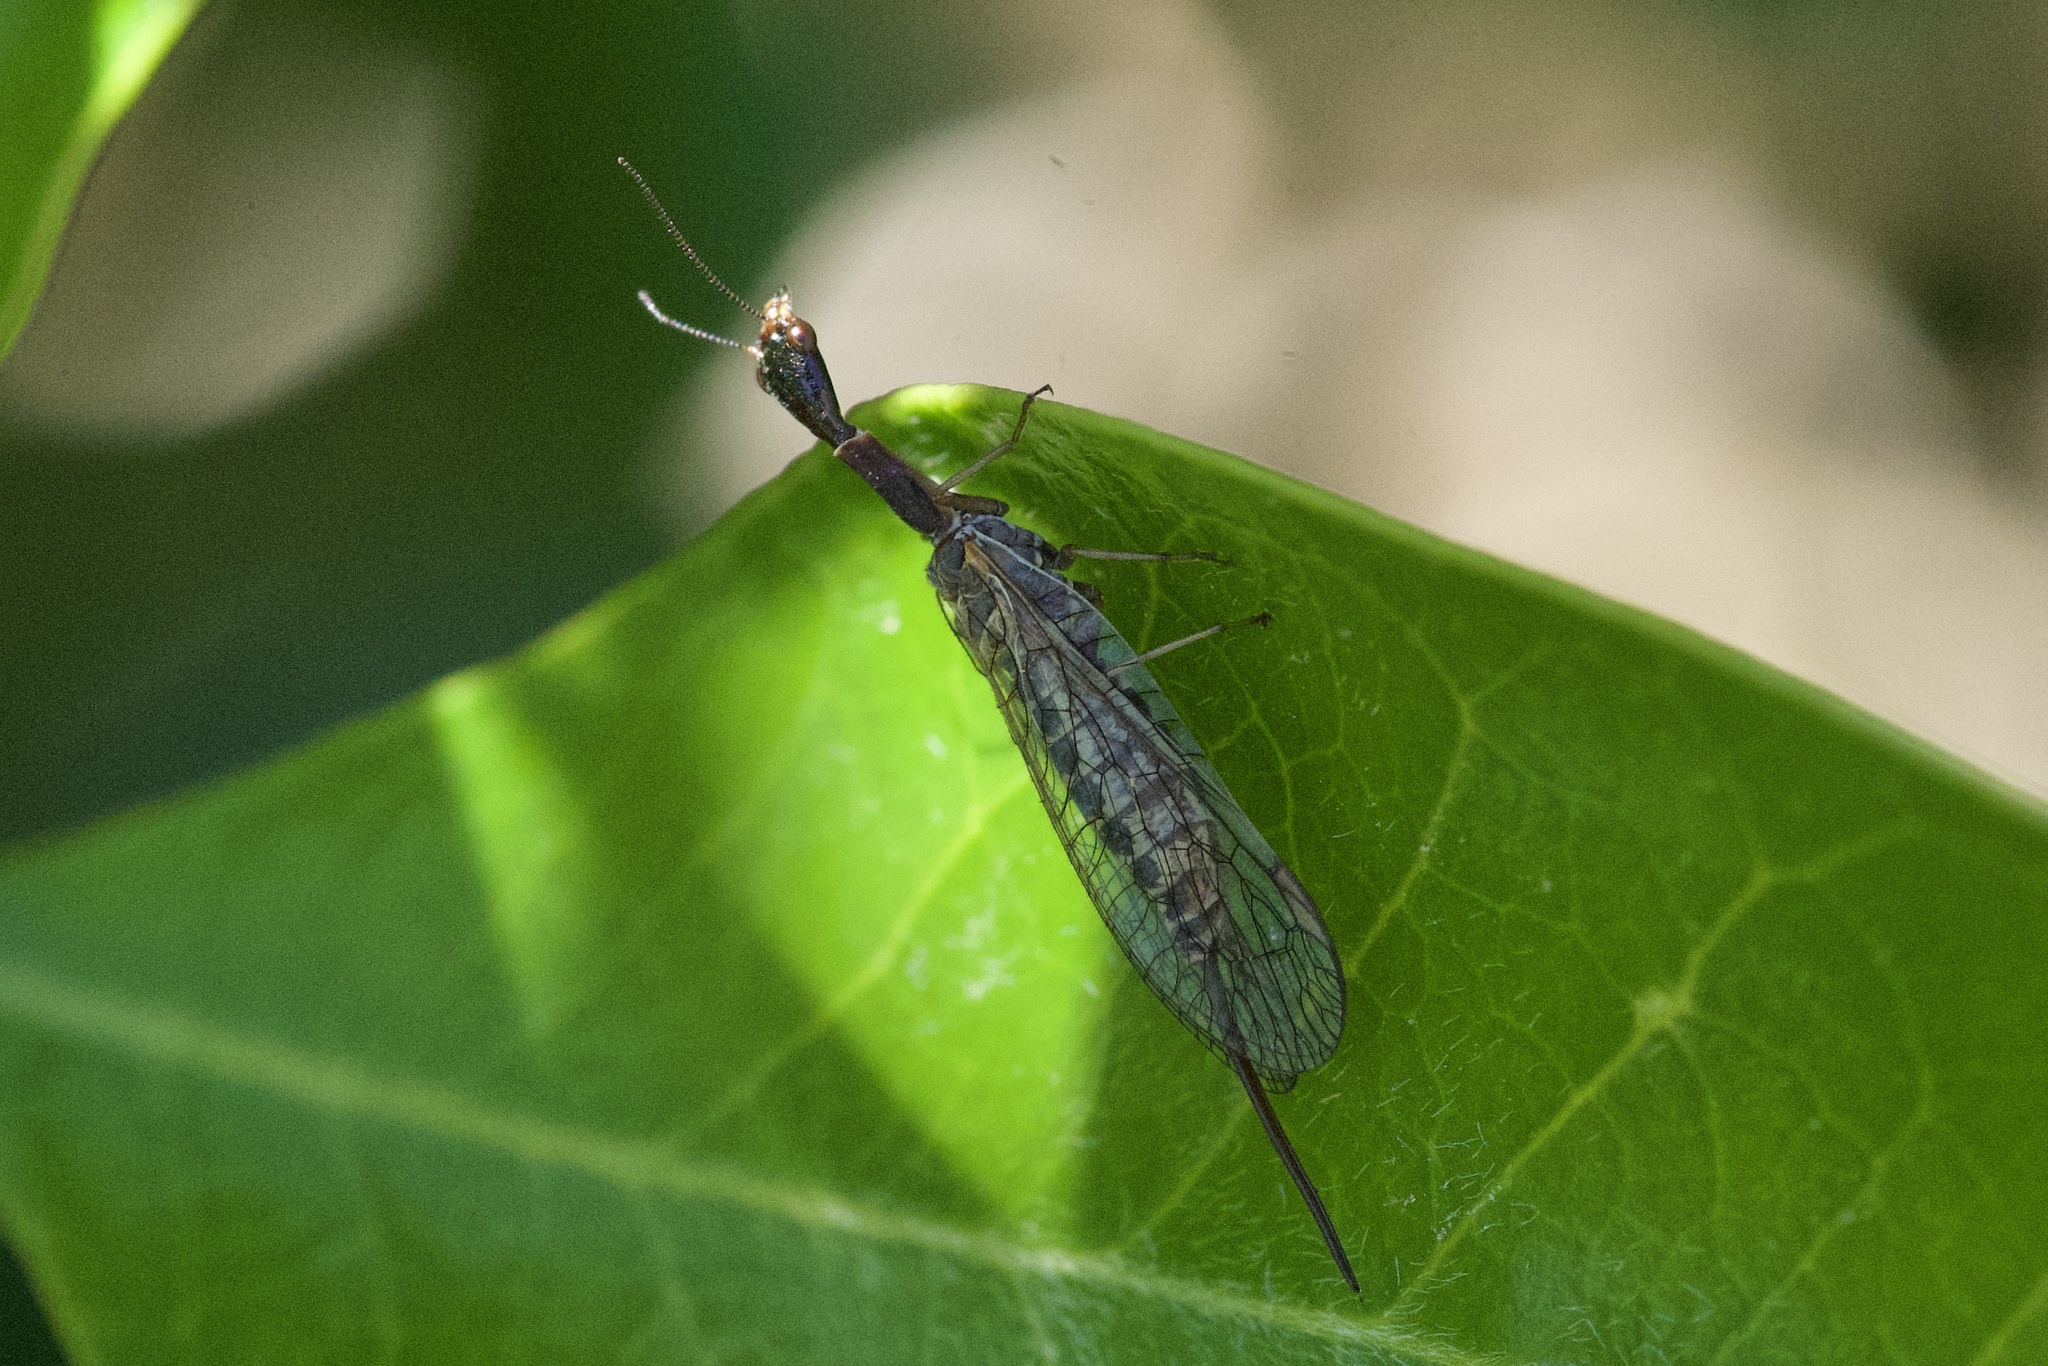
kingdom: Animalia
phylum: Arthropoda
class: Insecta
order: Raphidioptera
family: Raphidiidae
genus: Agulla
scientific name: Agulla bicolor
